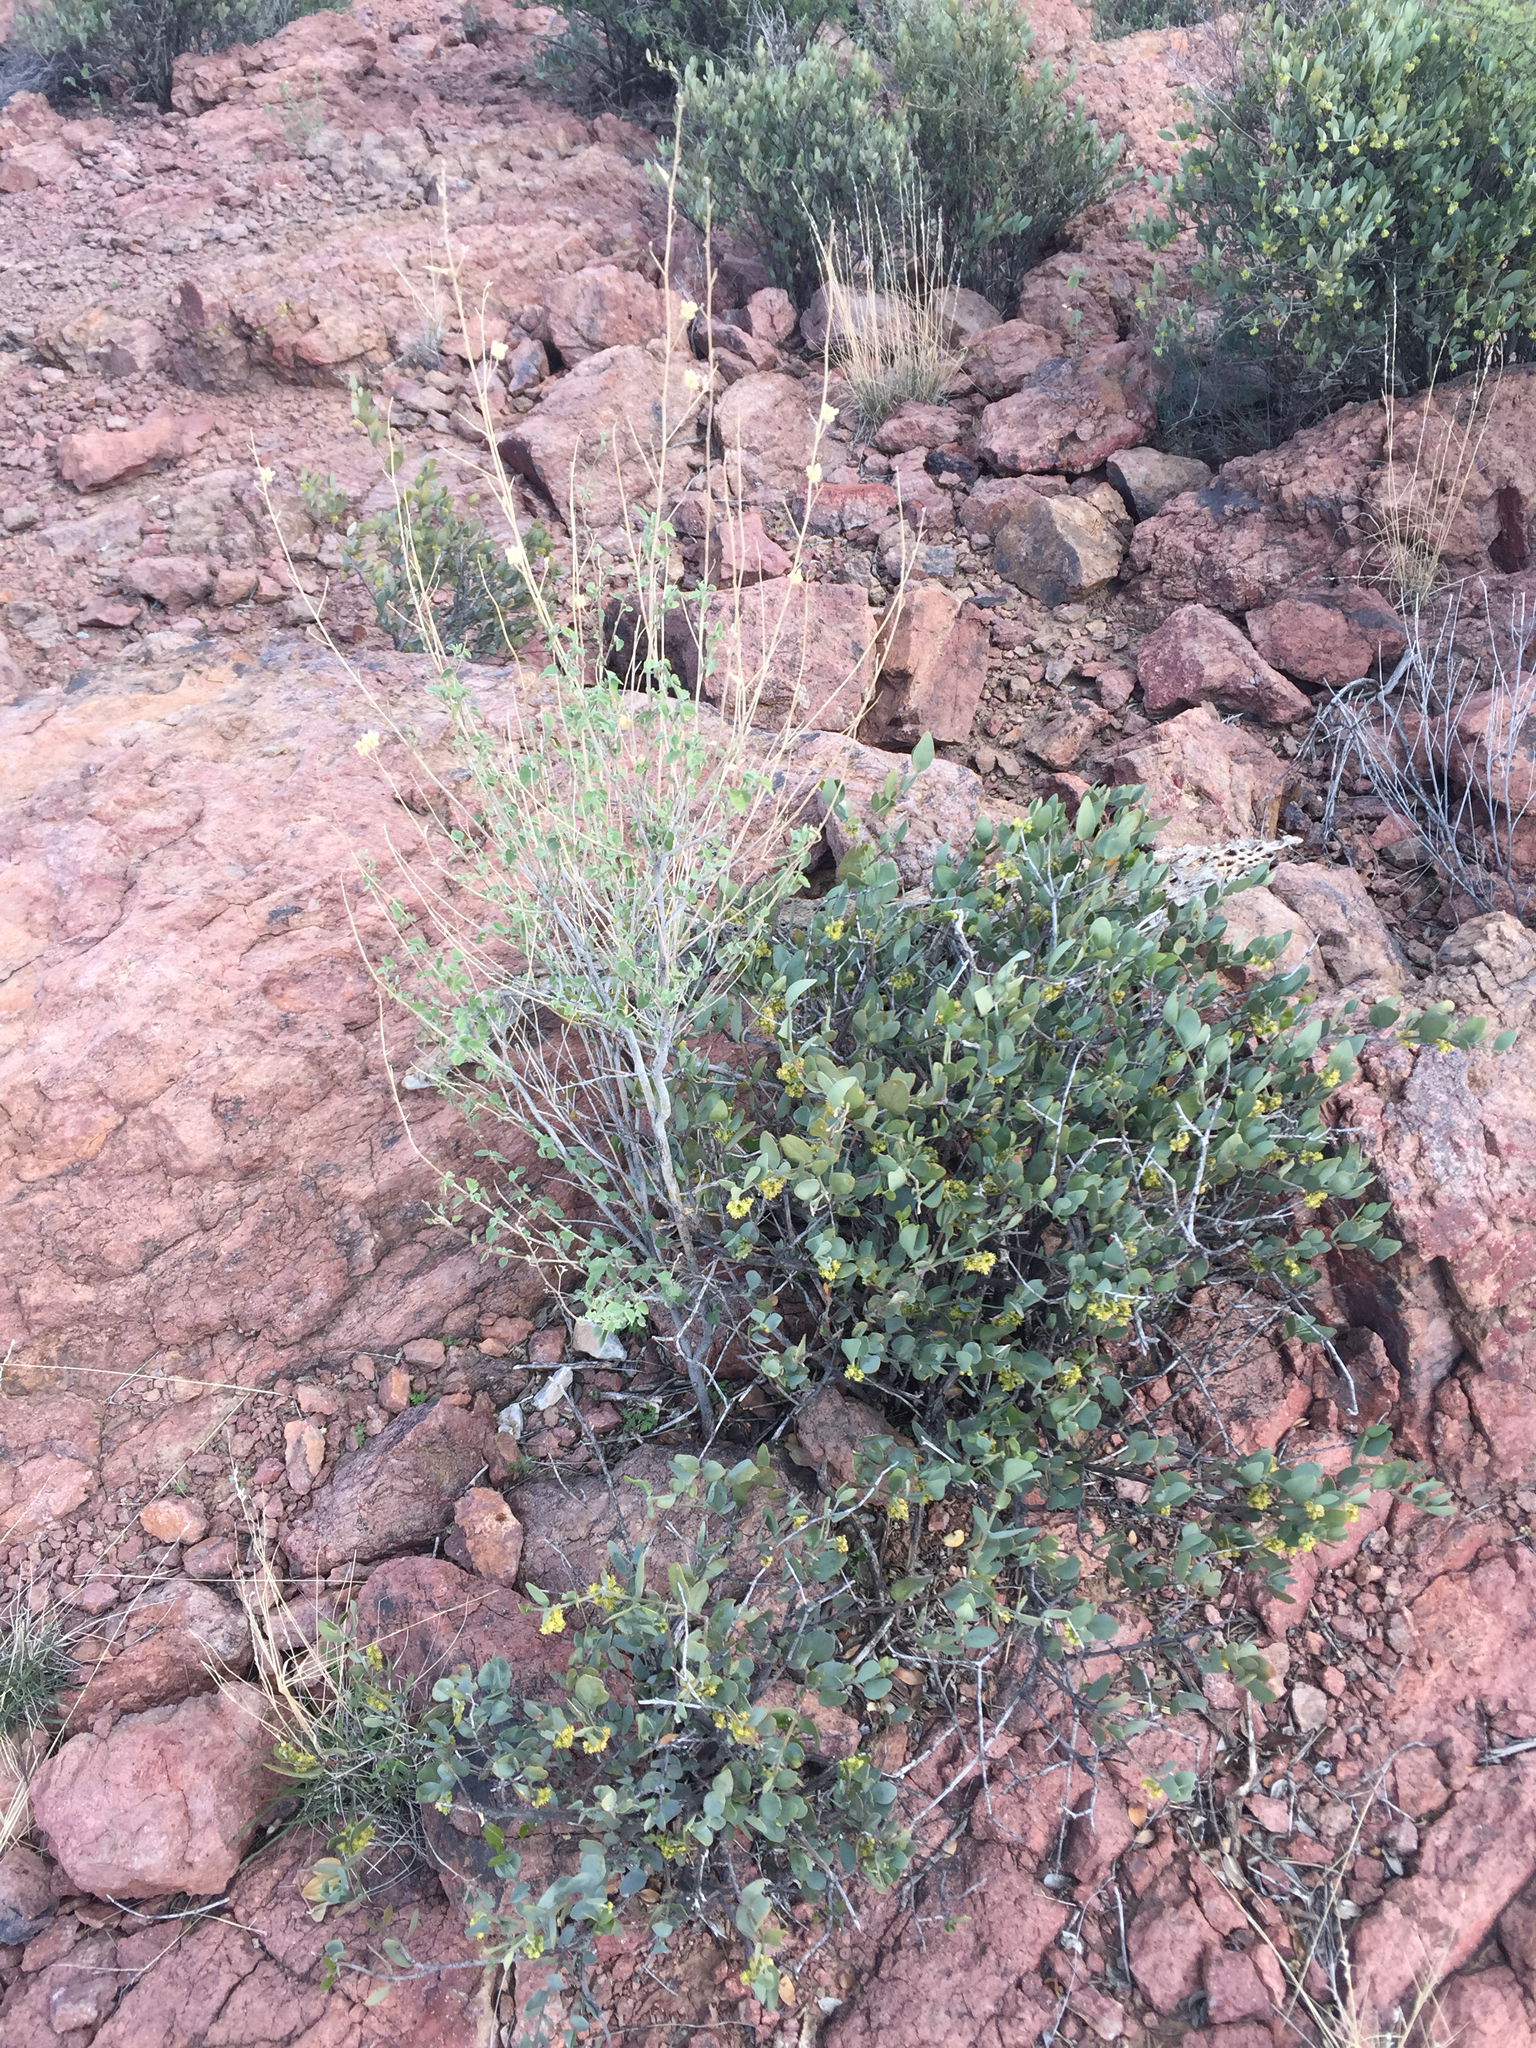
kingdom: Plantae
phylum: Tracheophyta
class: Magnoliopsida
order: Malvales
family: Malvaceae
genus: Abutilon
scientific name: Abutilon incanum
